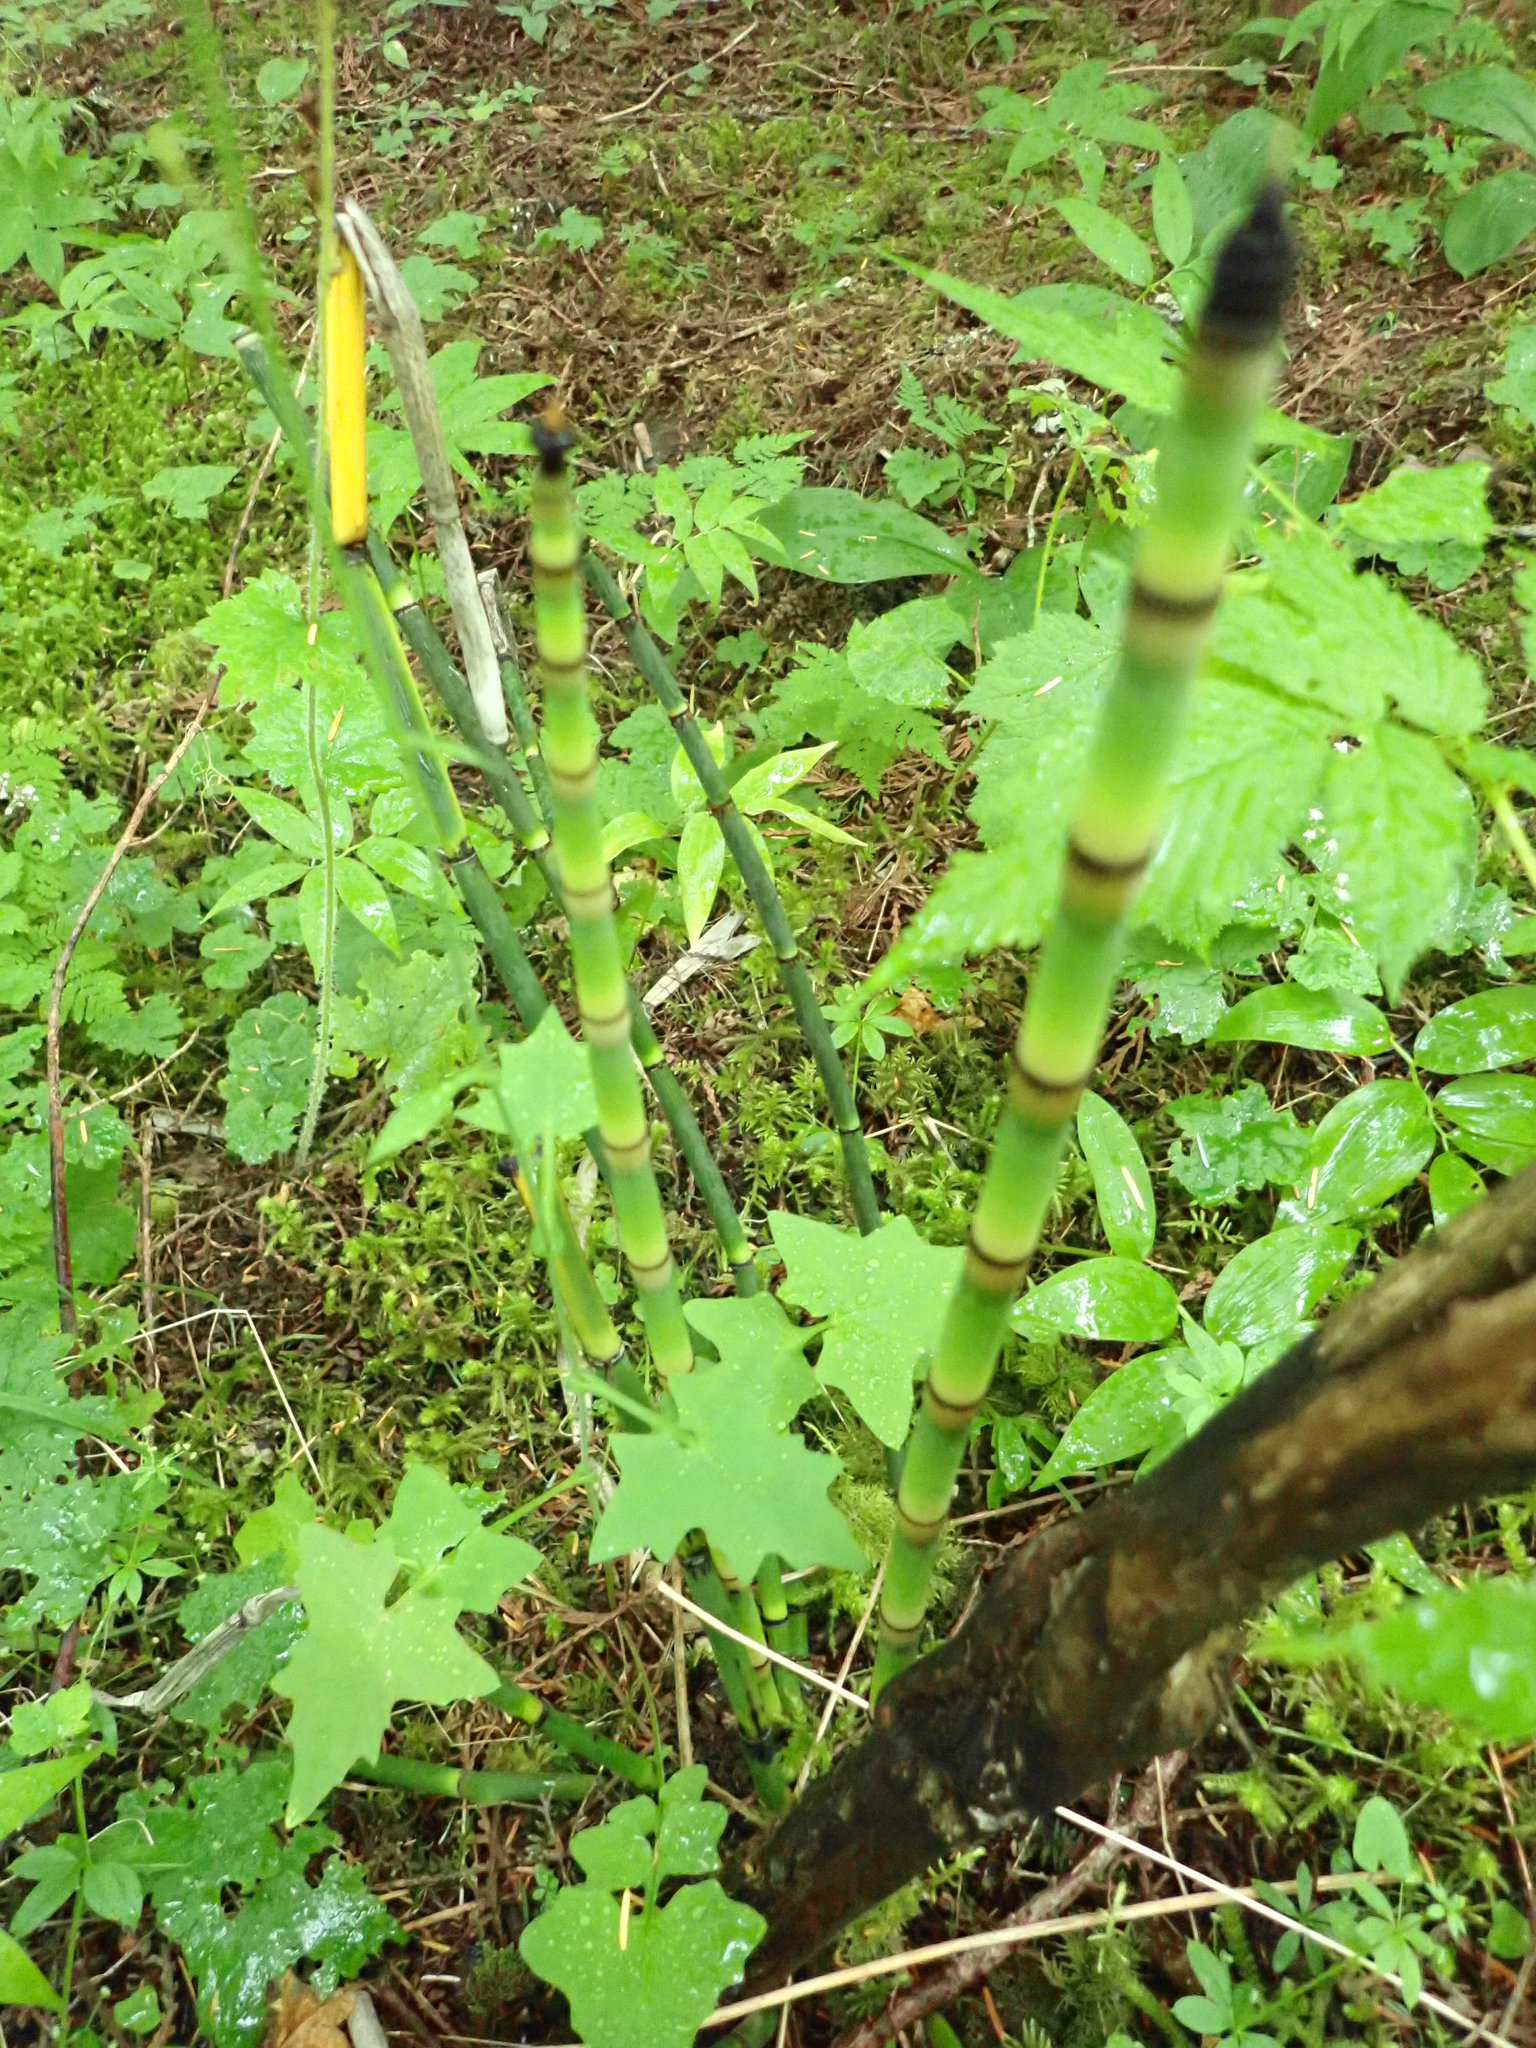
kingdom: Plantae
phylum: Tracheophyta
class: Polypodiopsida
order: Equisetales
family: Equisetaceae
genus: Equisetum
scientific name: Equisetum praealtum
